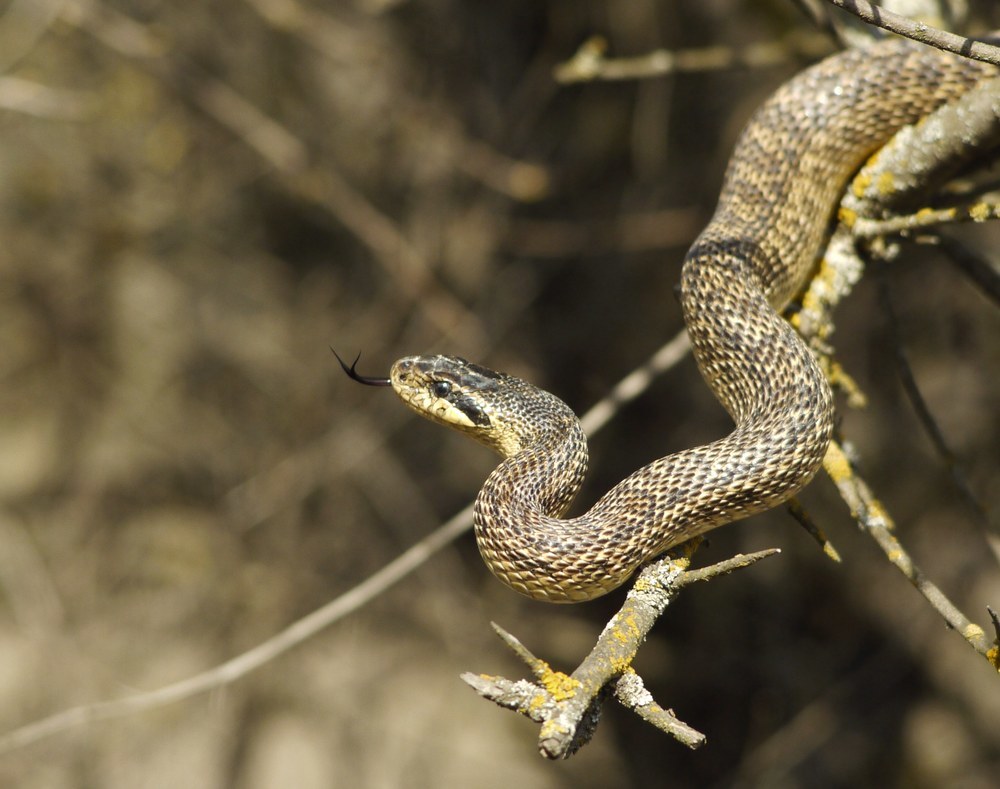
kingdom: Animalia
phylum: Chordata
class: Squamata
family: Colubridae
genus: Elaphe
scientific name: Elaphe sauromates
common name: Eastern four-lined ratsnake
